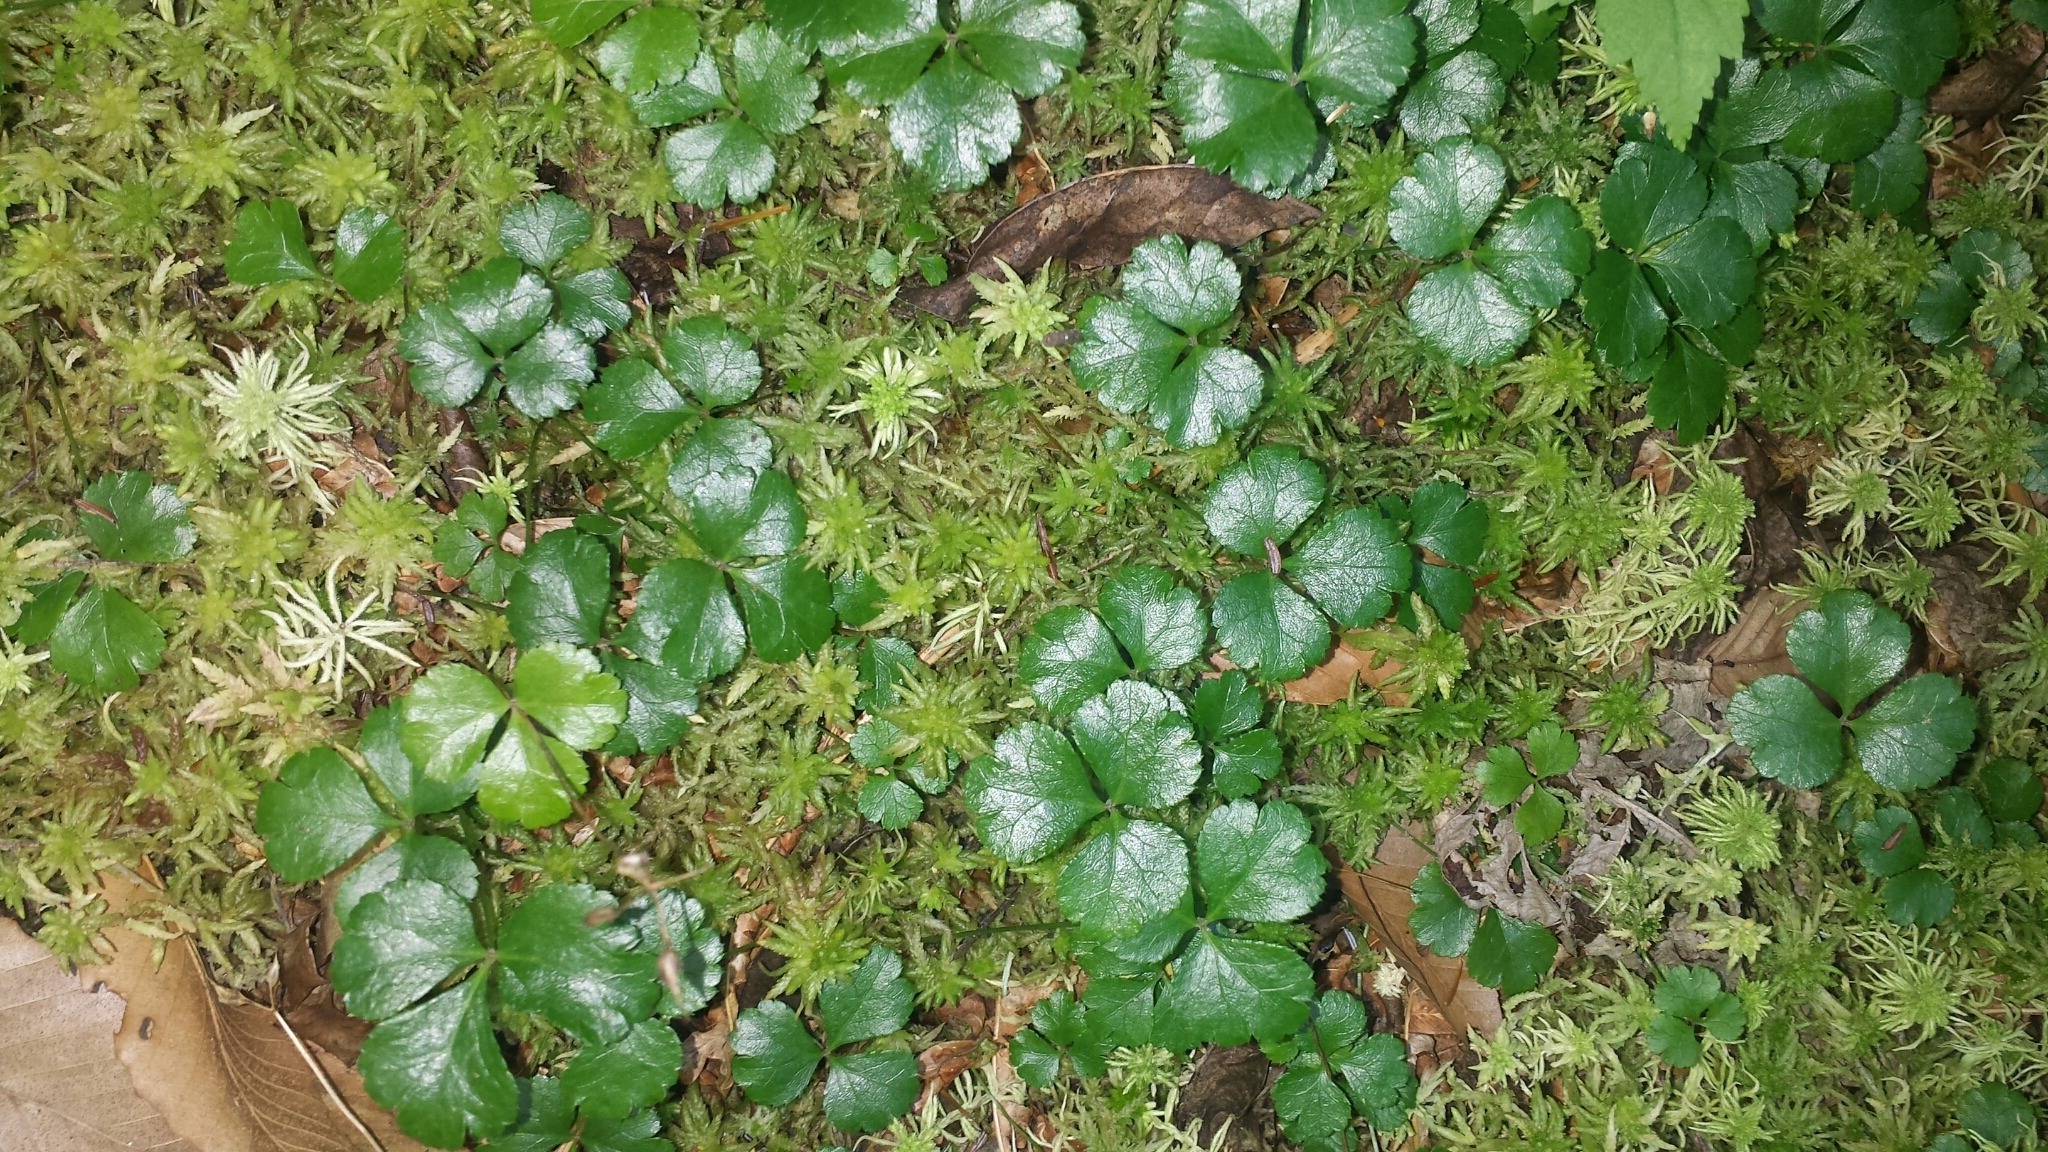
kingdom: Plantae
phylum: Tracheophyta
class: Magnoliopsida
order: Ranunculales
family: Ranunculaceae
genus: Coptis
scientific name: Coptis trifolia
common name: Canker-root
